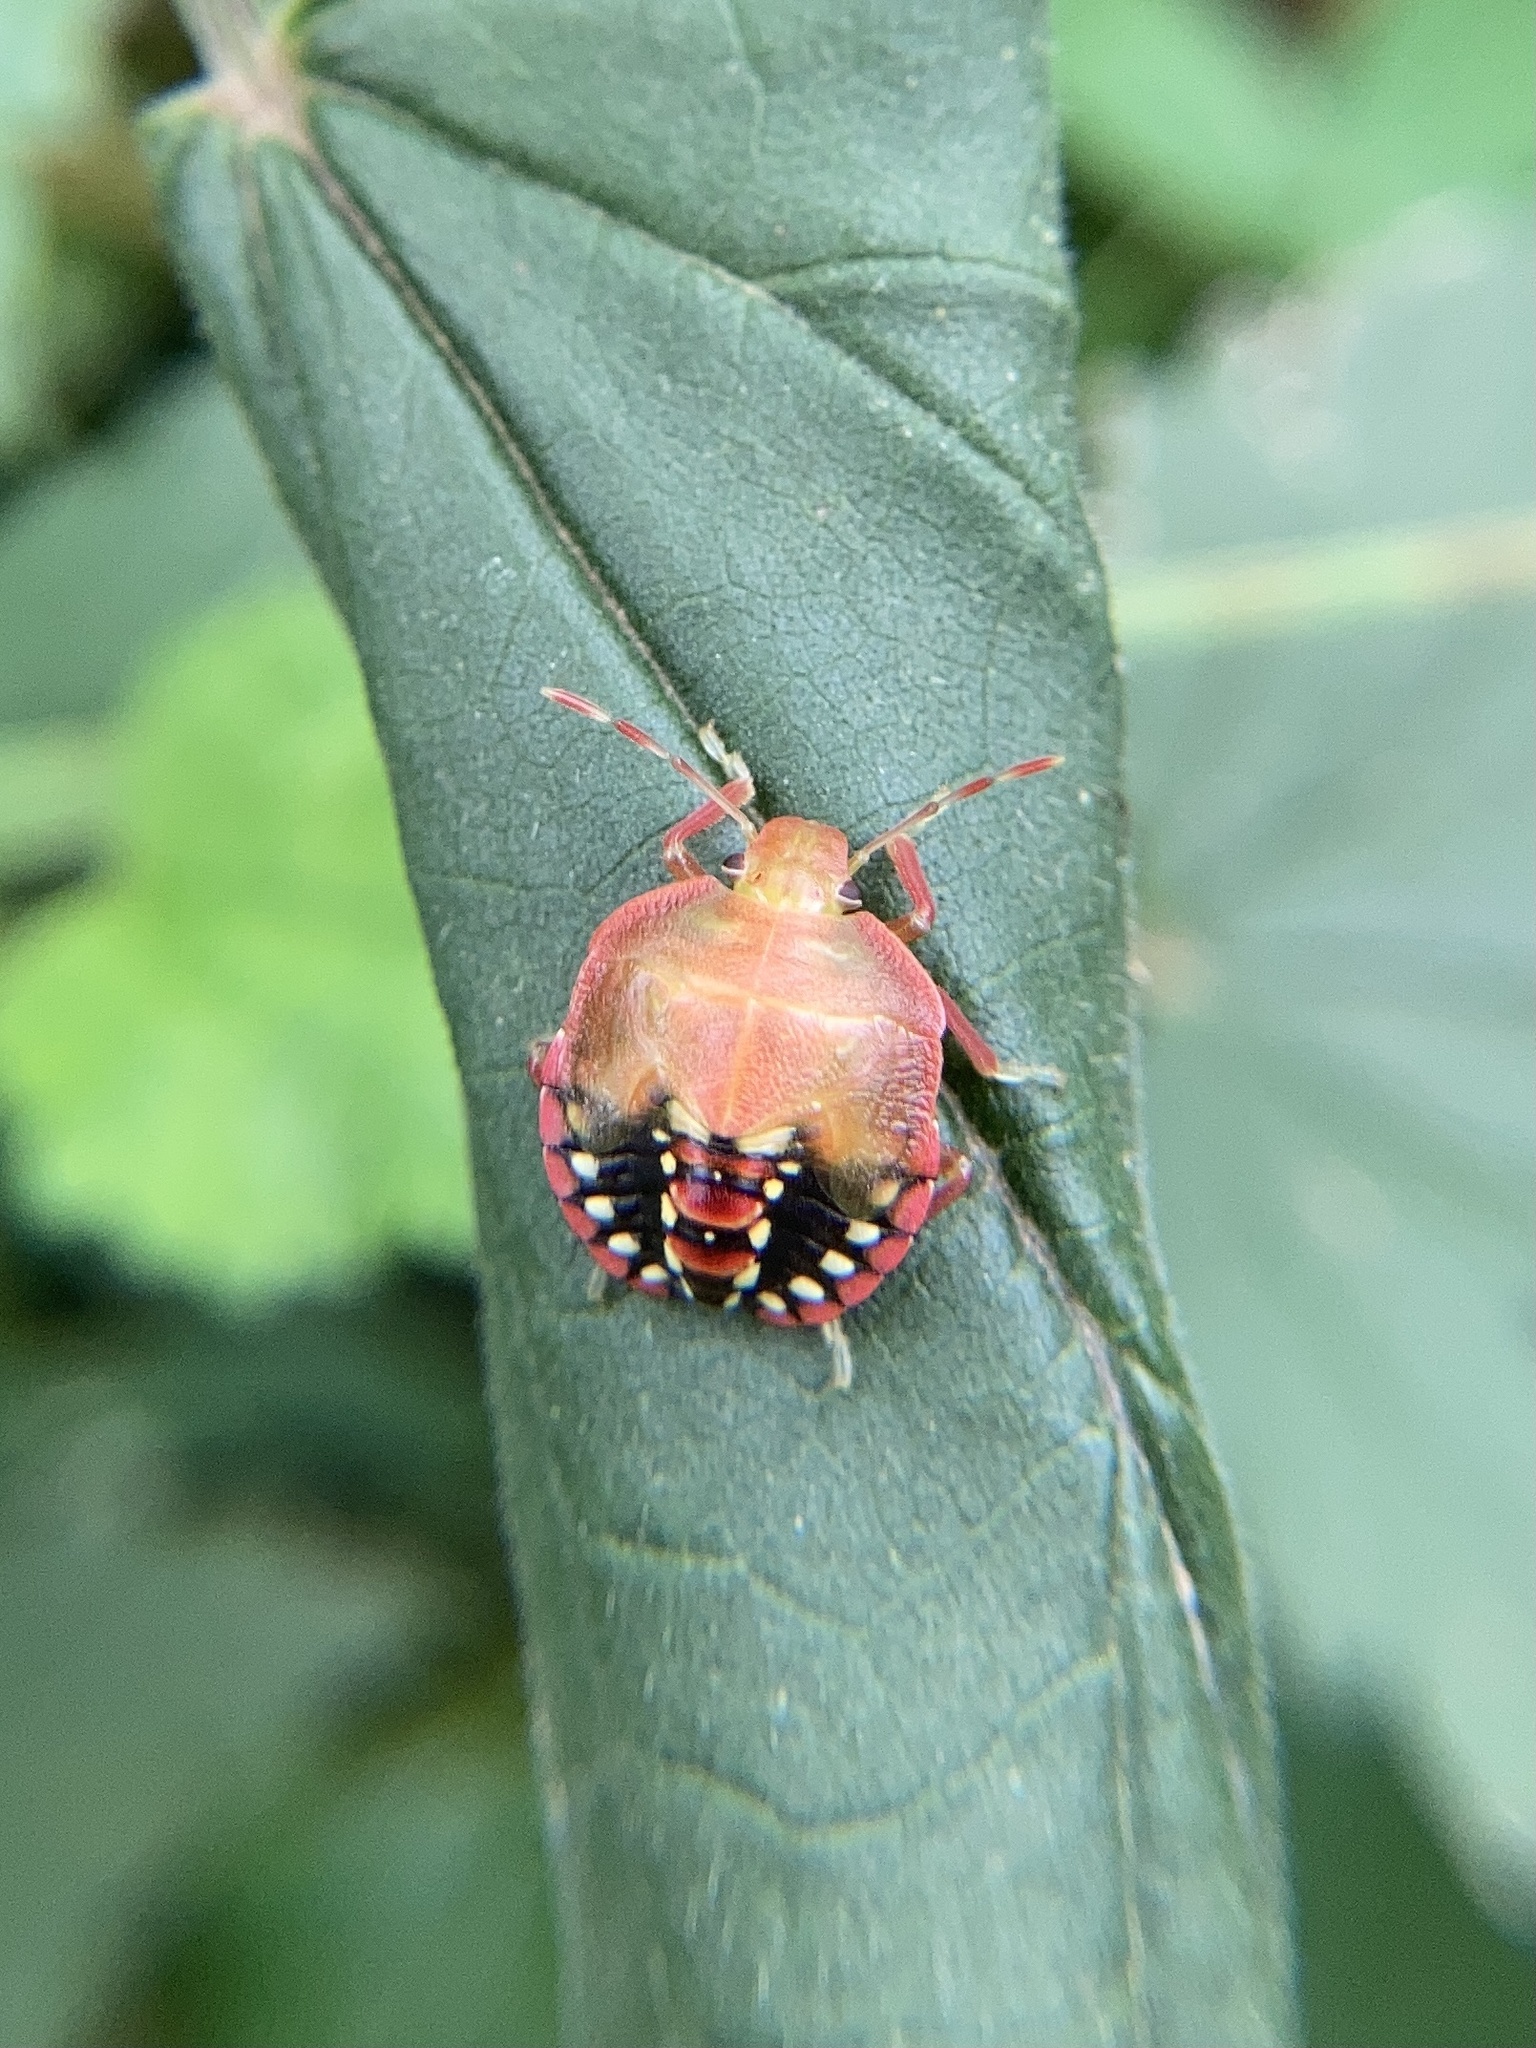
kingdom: Animalia
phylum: Arthropoda
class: Insecta
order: Hemiptera
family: Pentatomidae
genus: Nezara
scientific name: Nezara viridula
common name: Southern green stink bug
